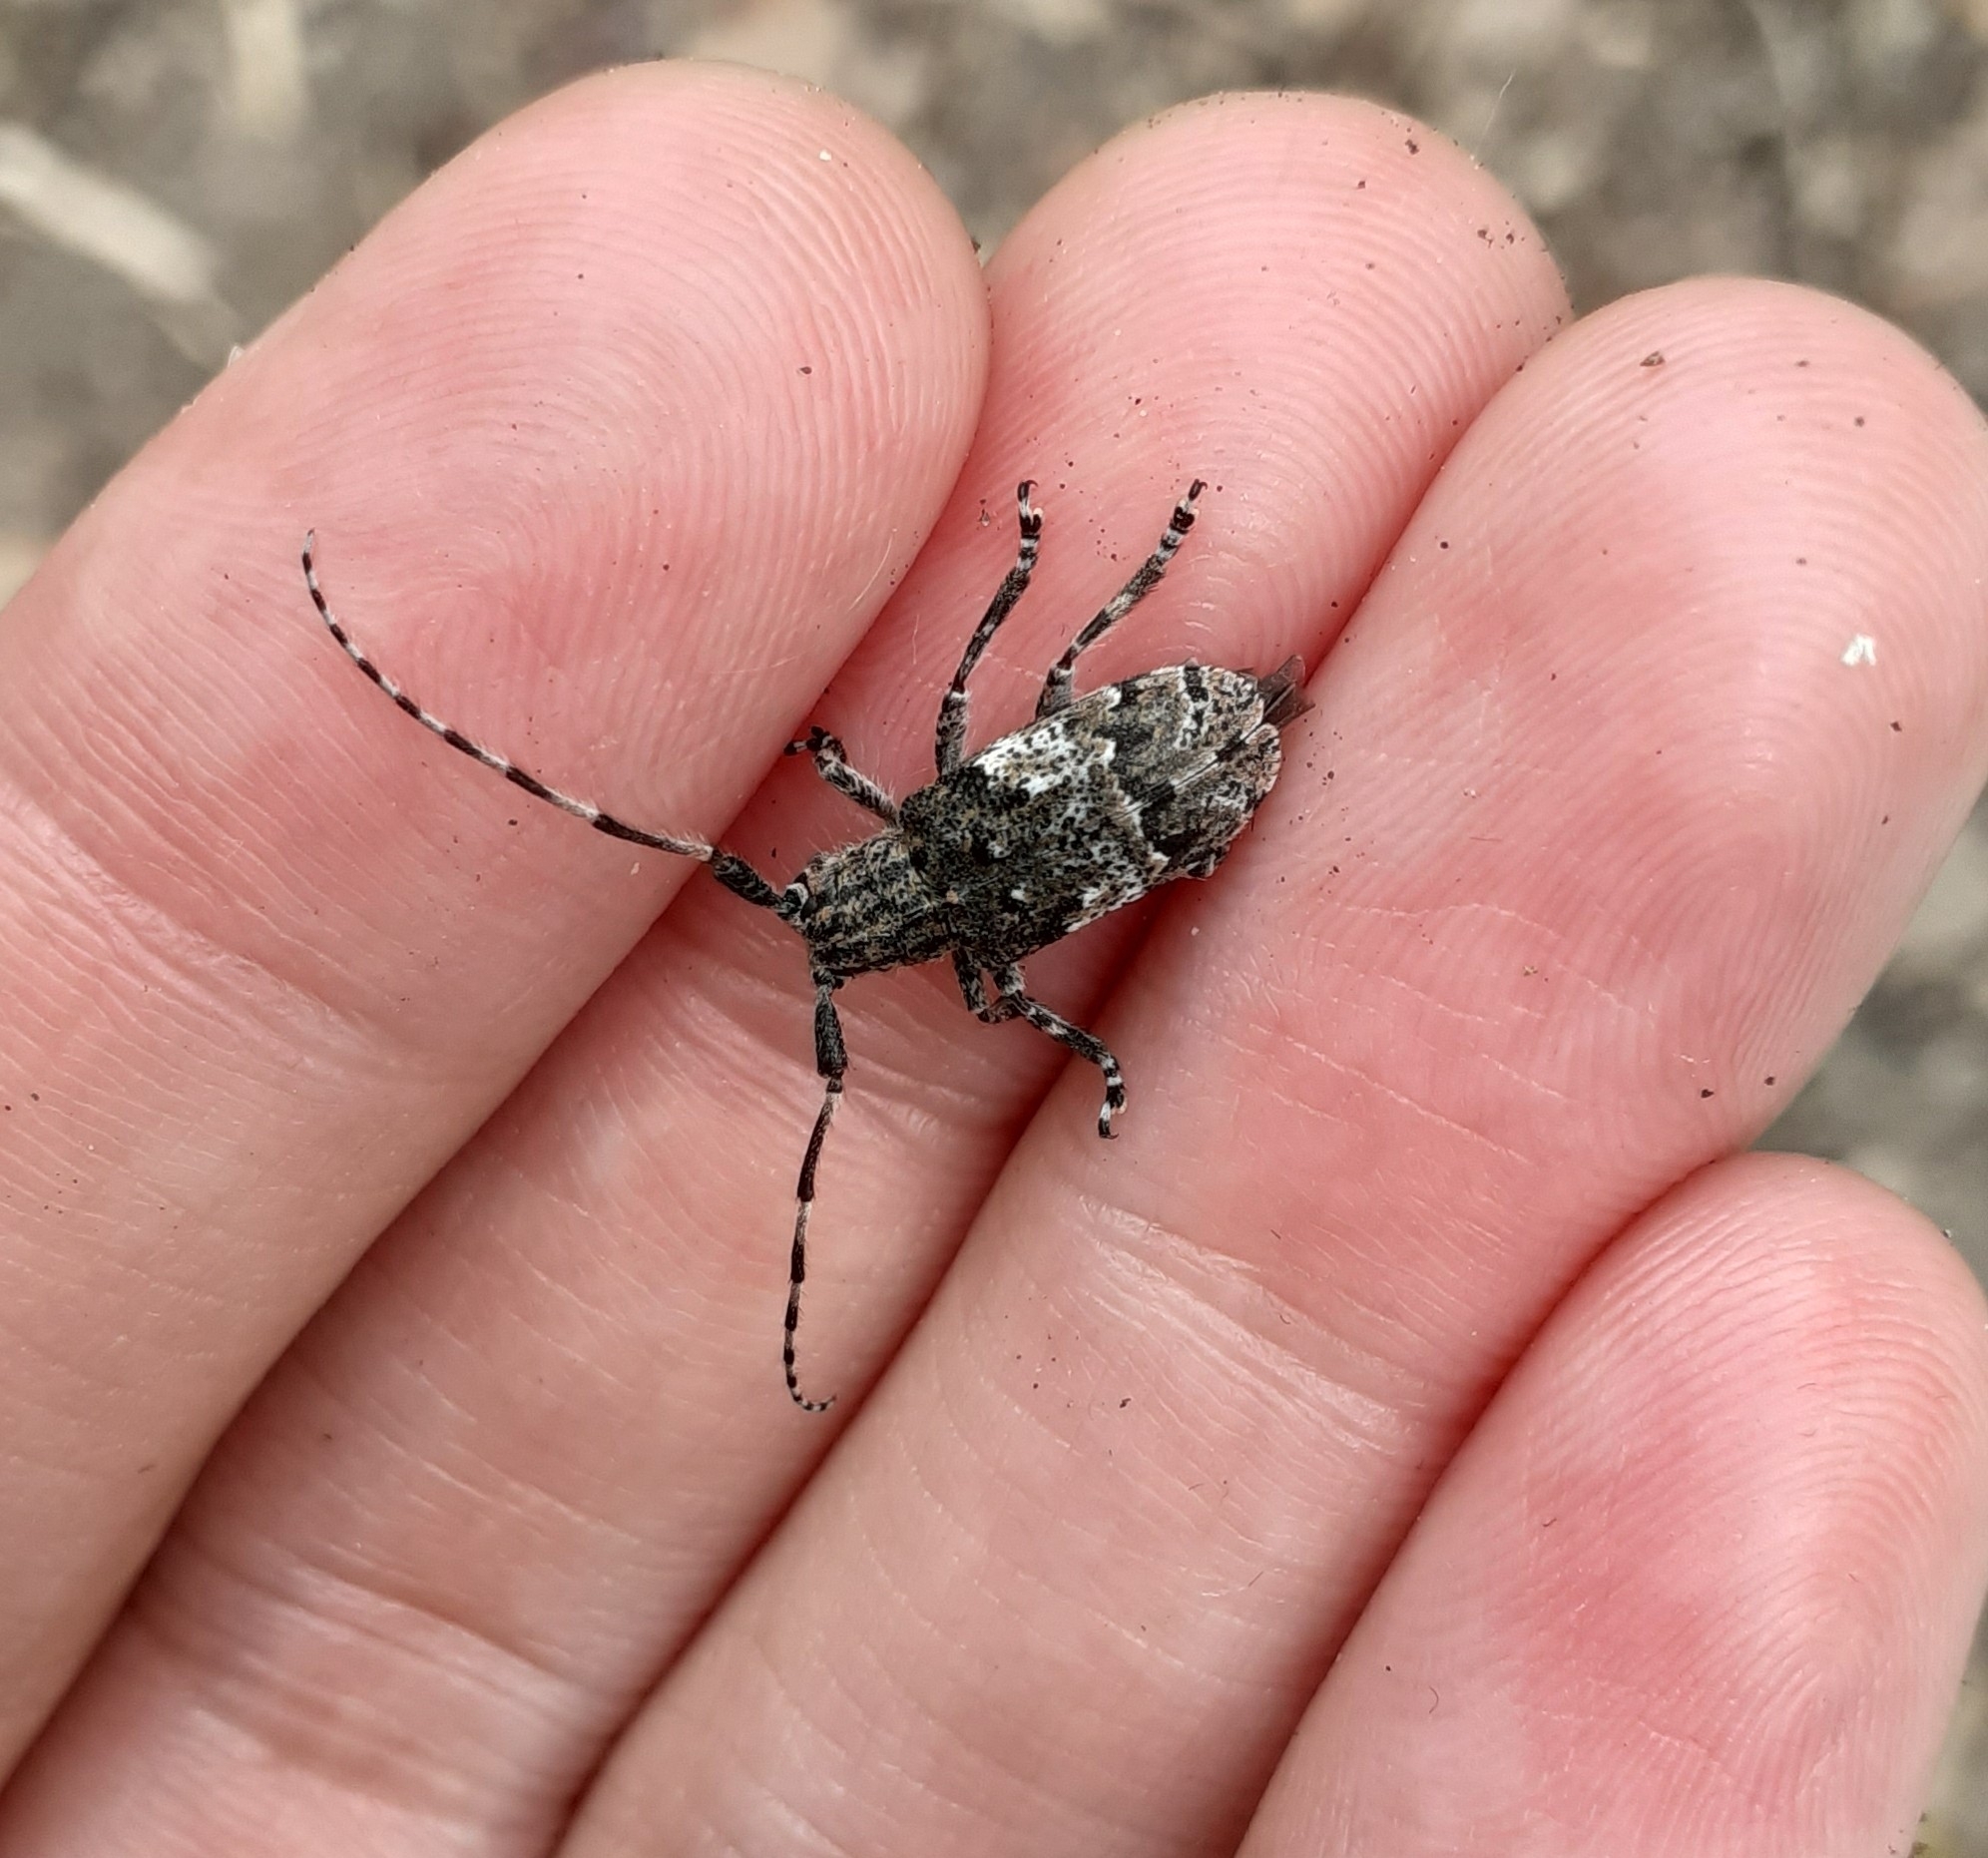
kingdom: Animalia
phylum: Arthropoda
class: Insecta
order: Coleoptera
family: Cerambycidae
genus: Mesosa
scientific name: Mesosa nebulosa
